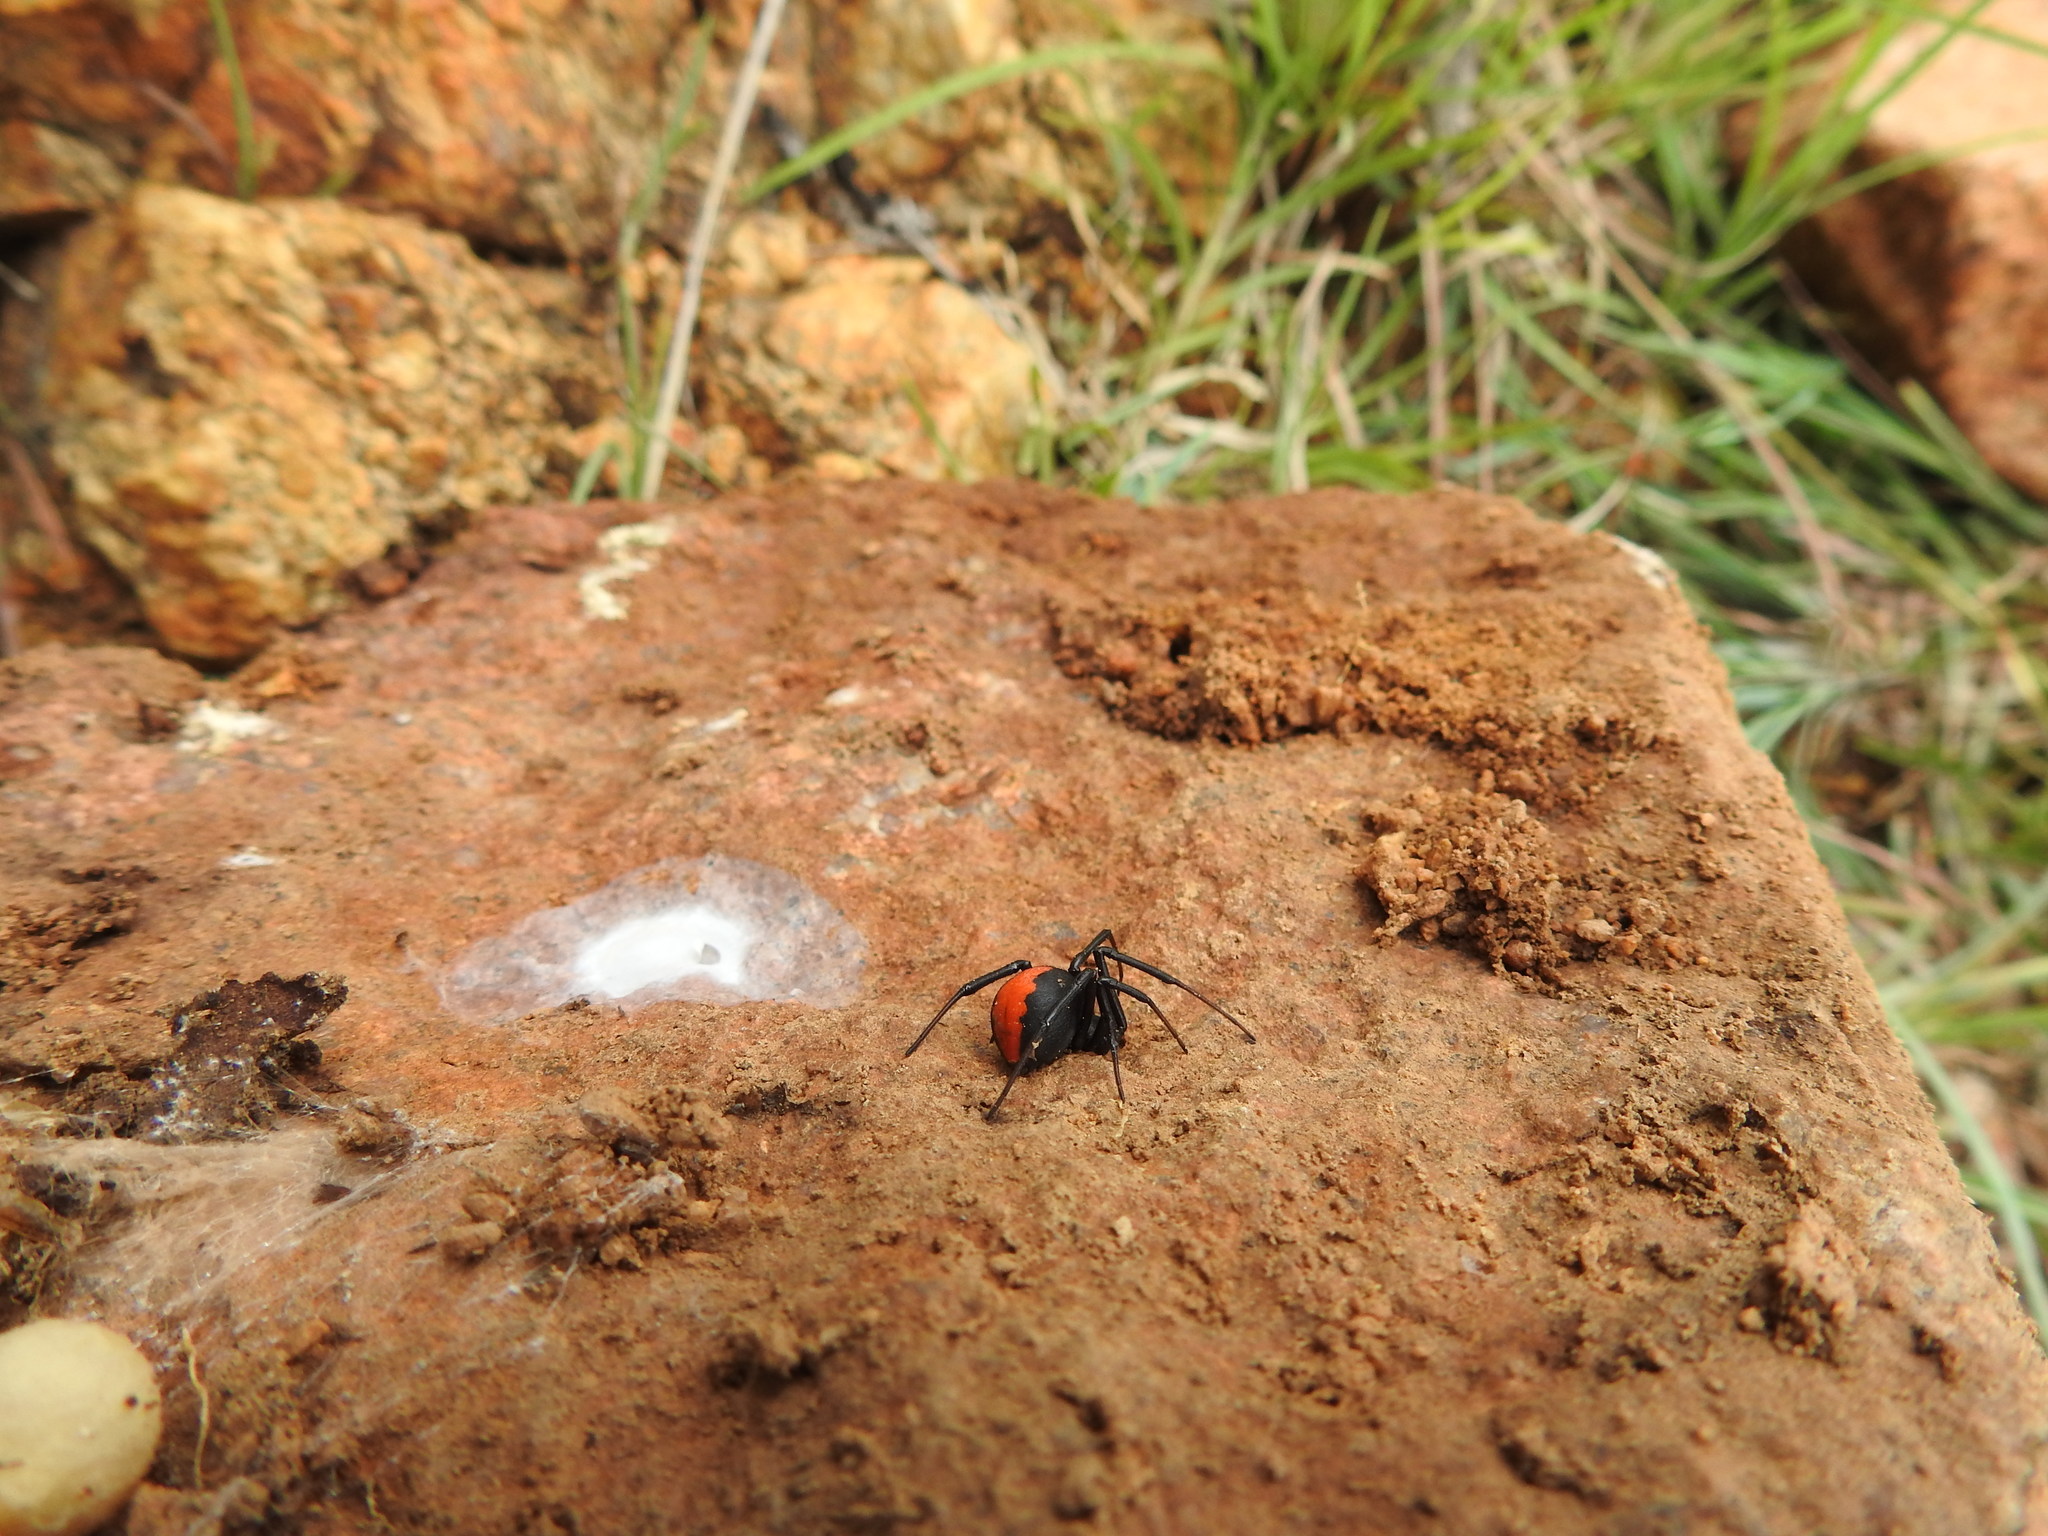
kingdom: Animalia
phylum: Arthropoda
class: Arachnida
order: Araneae
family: Theridiidae
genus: Latrodectus
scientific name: Latrodectus erythromelas
